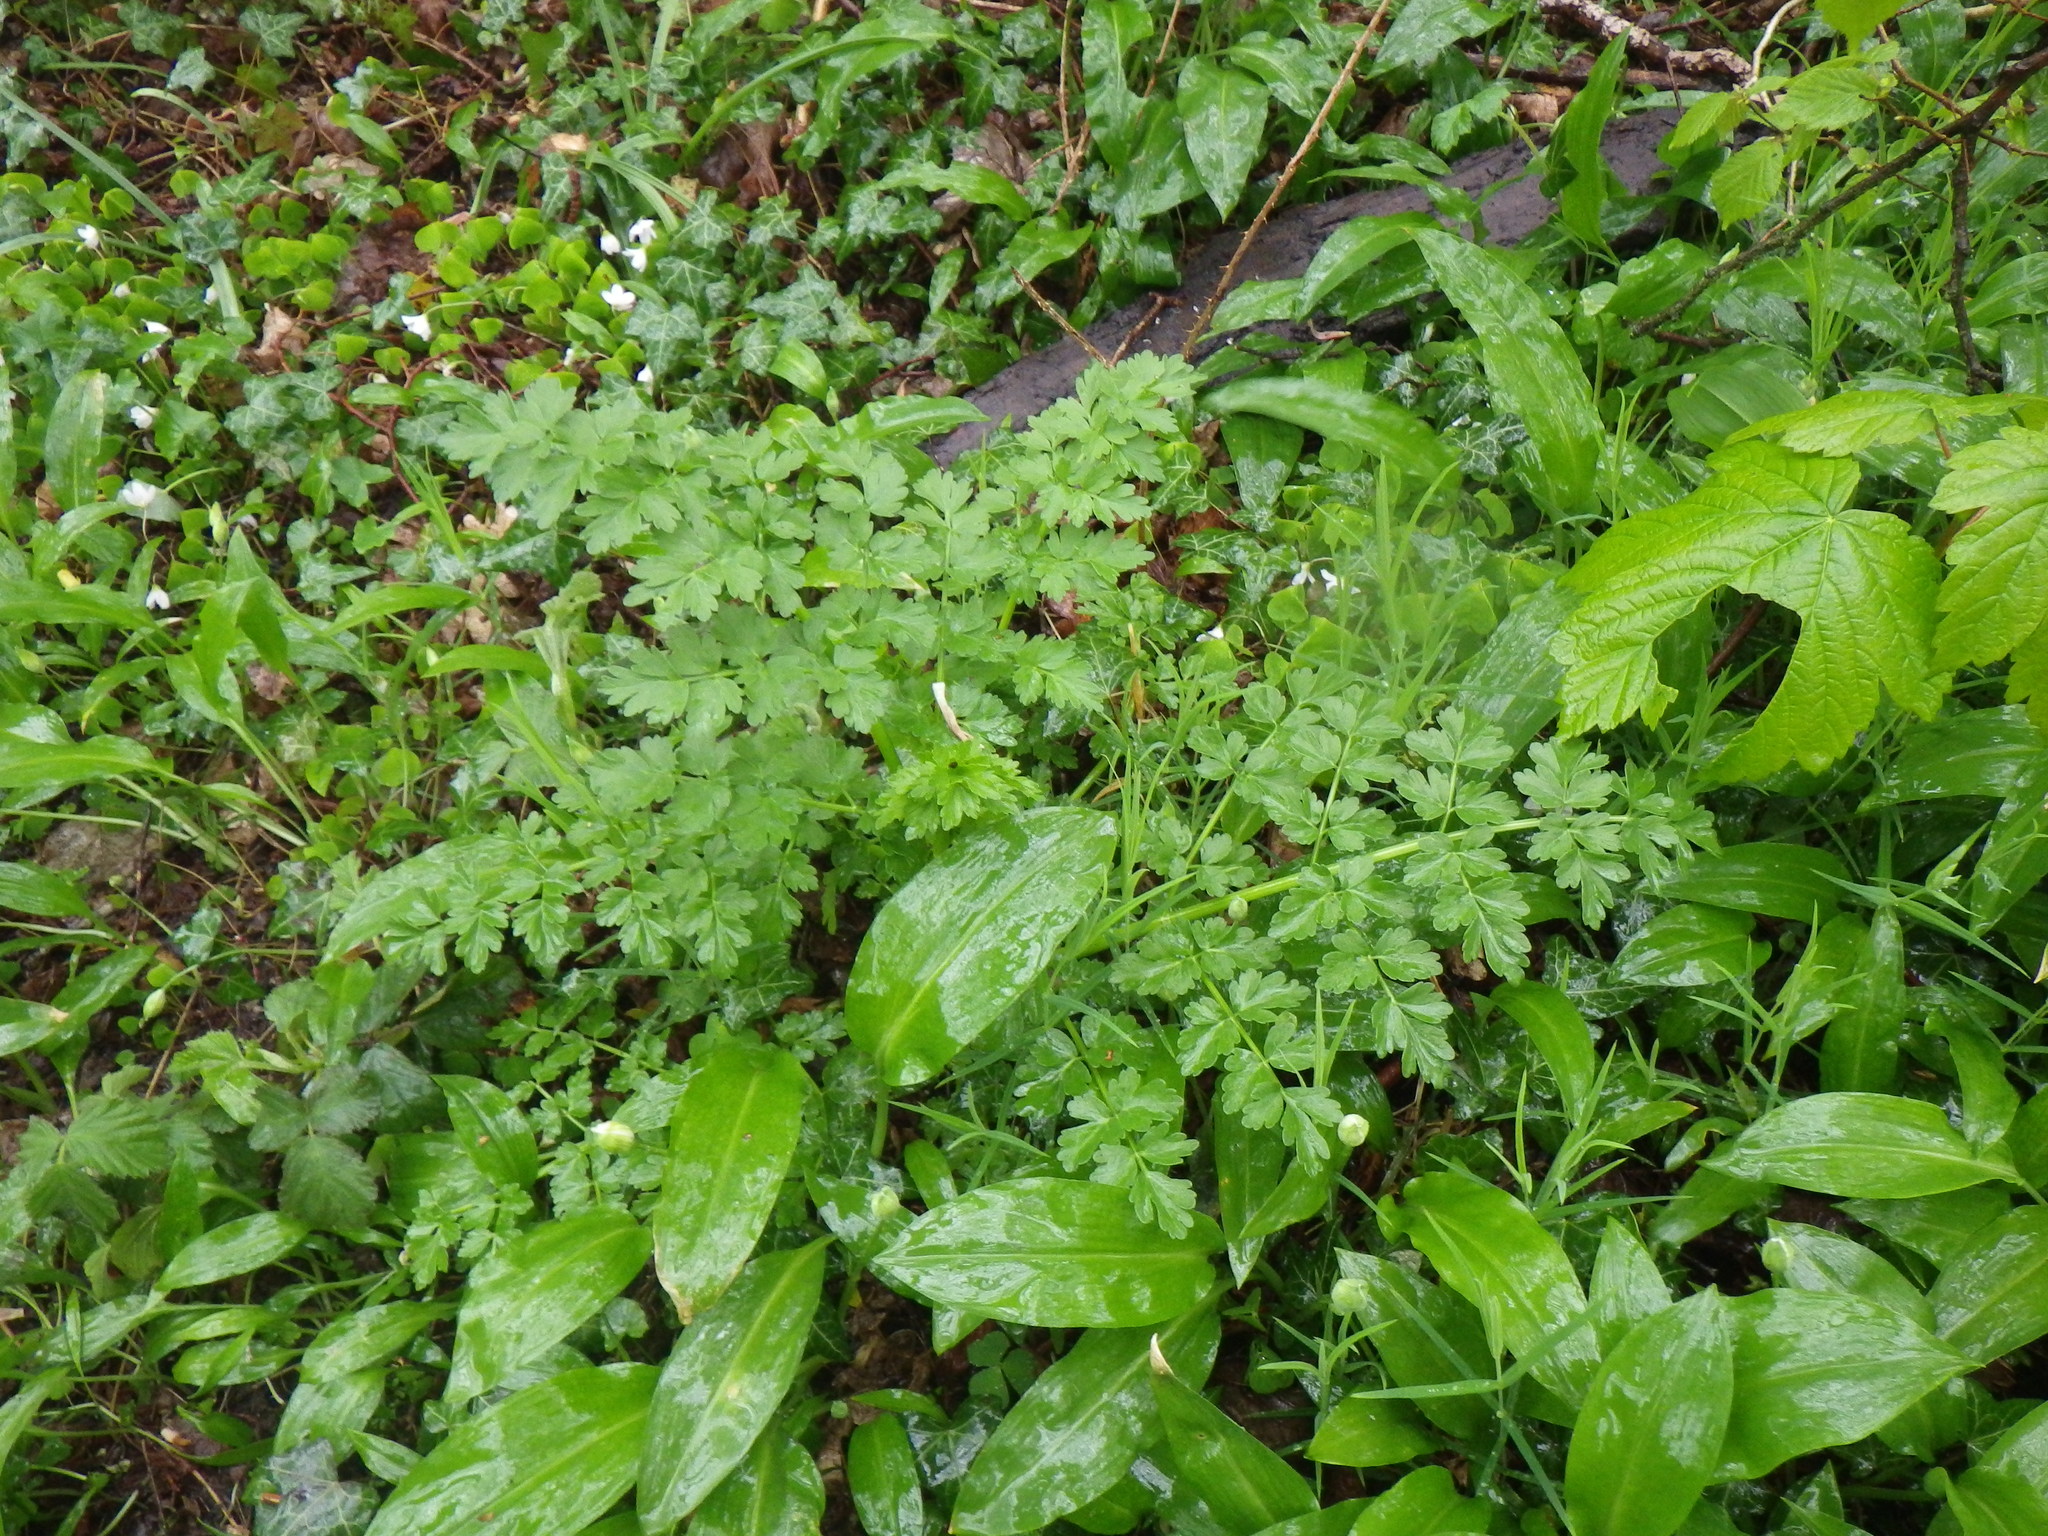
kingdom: Plantae
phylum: Tracheophyta
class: Magnoliopsida
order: Apiales
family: Apiaceae
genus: Oenanthe
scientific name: Oenanthe crocata
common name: Hemlock water-dropwort
